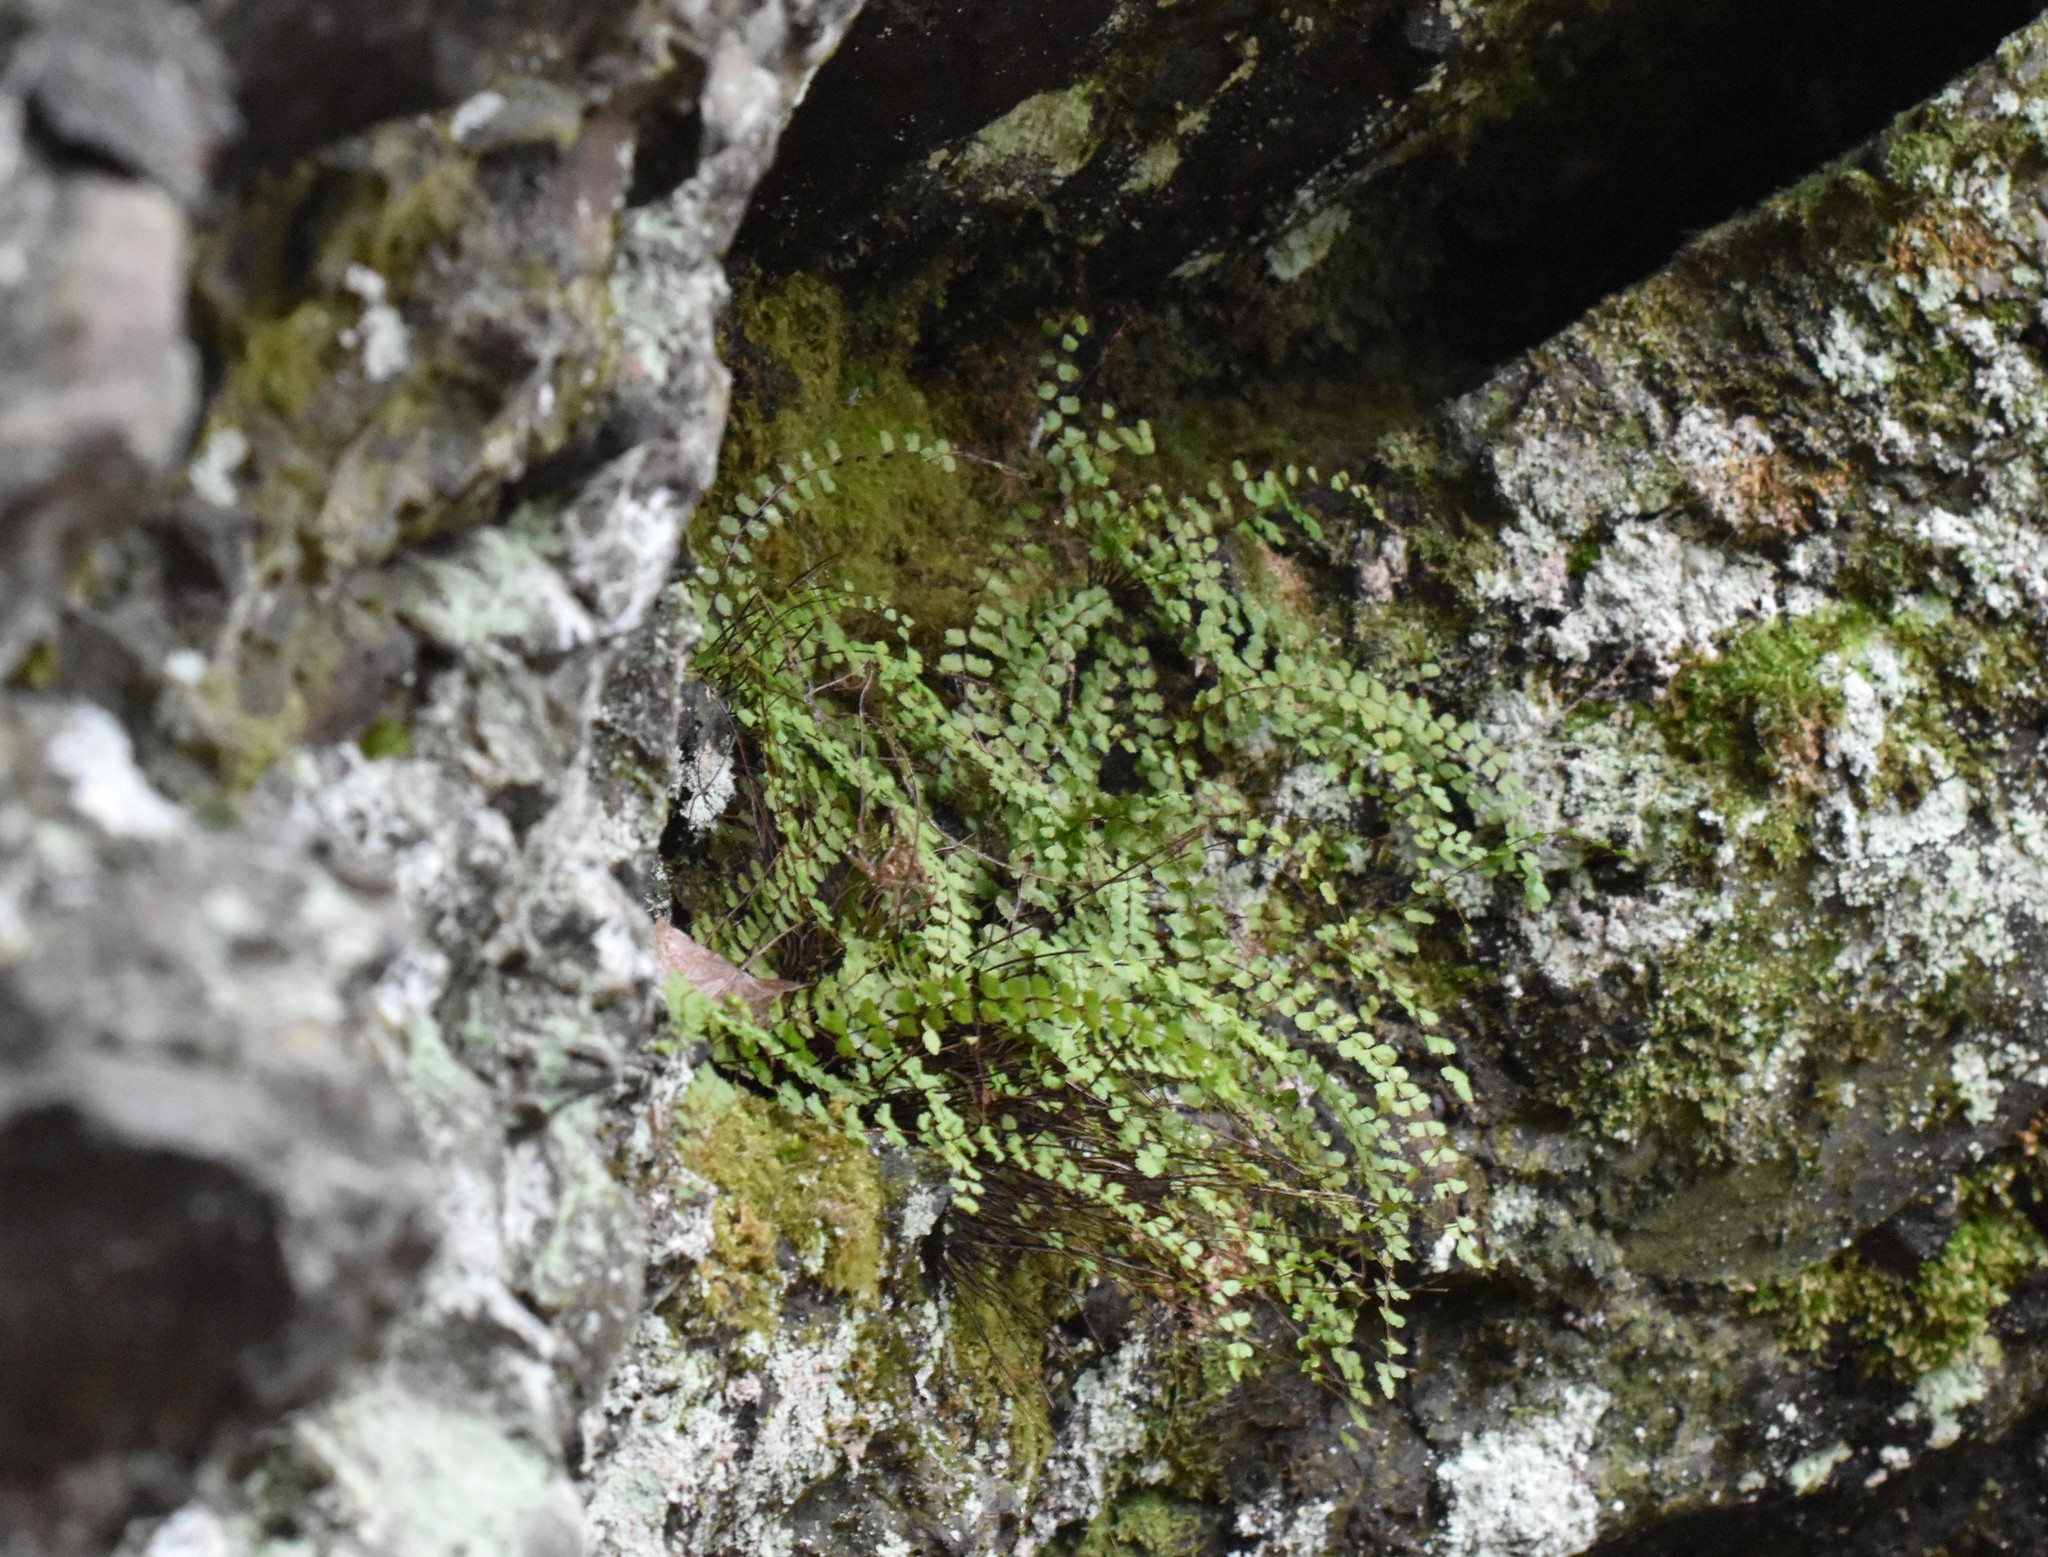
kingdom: Plantae
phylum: Tracheophyta
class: Polypodiopsida
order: Polypodiales
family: Aspleniaceae
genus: Asplenium
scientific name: Asplenium trichomanes
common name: Maidenhair spleenwort
